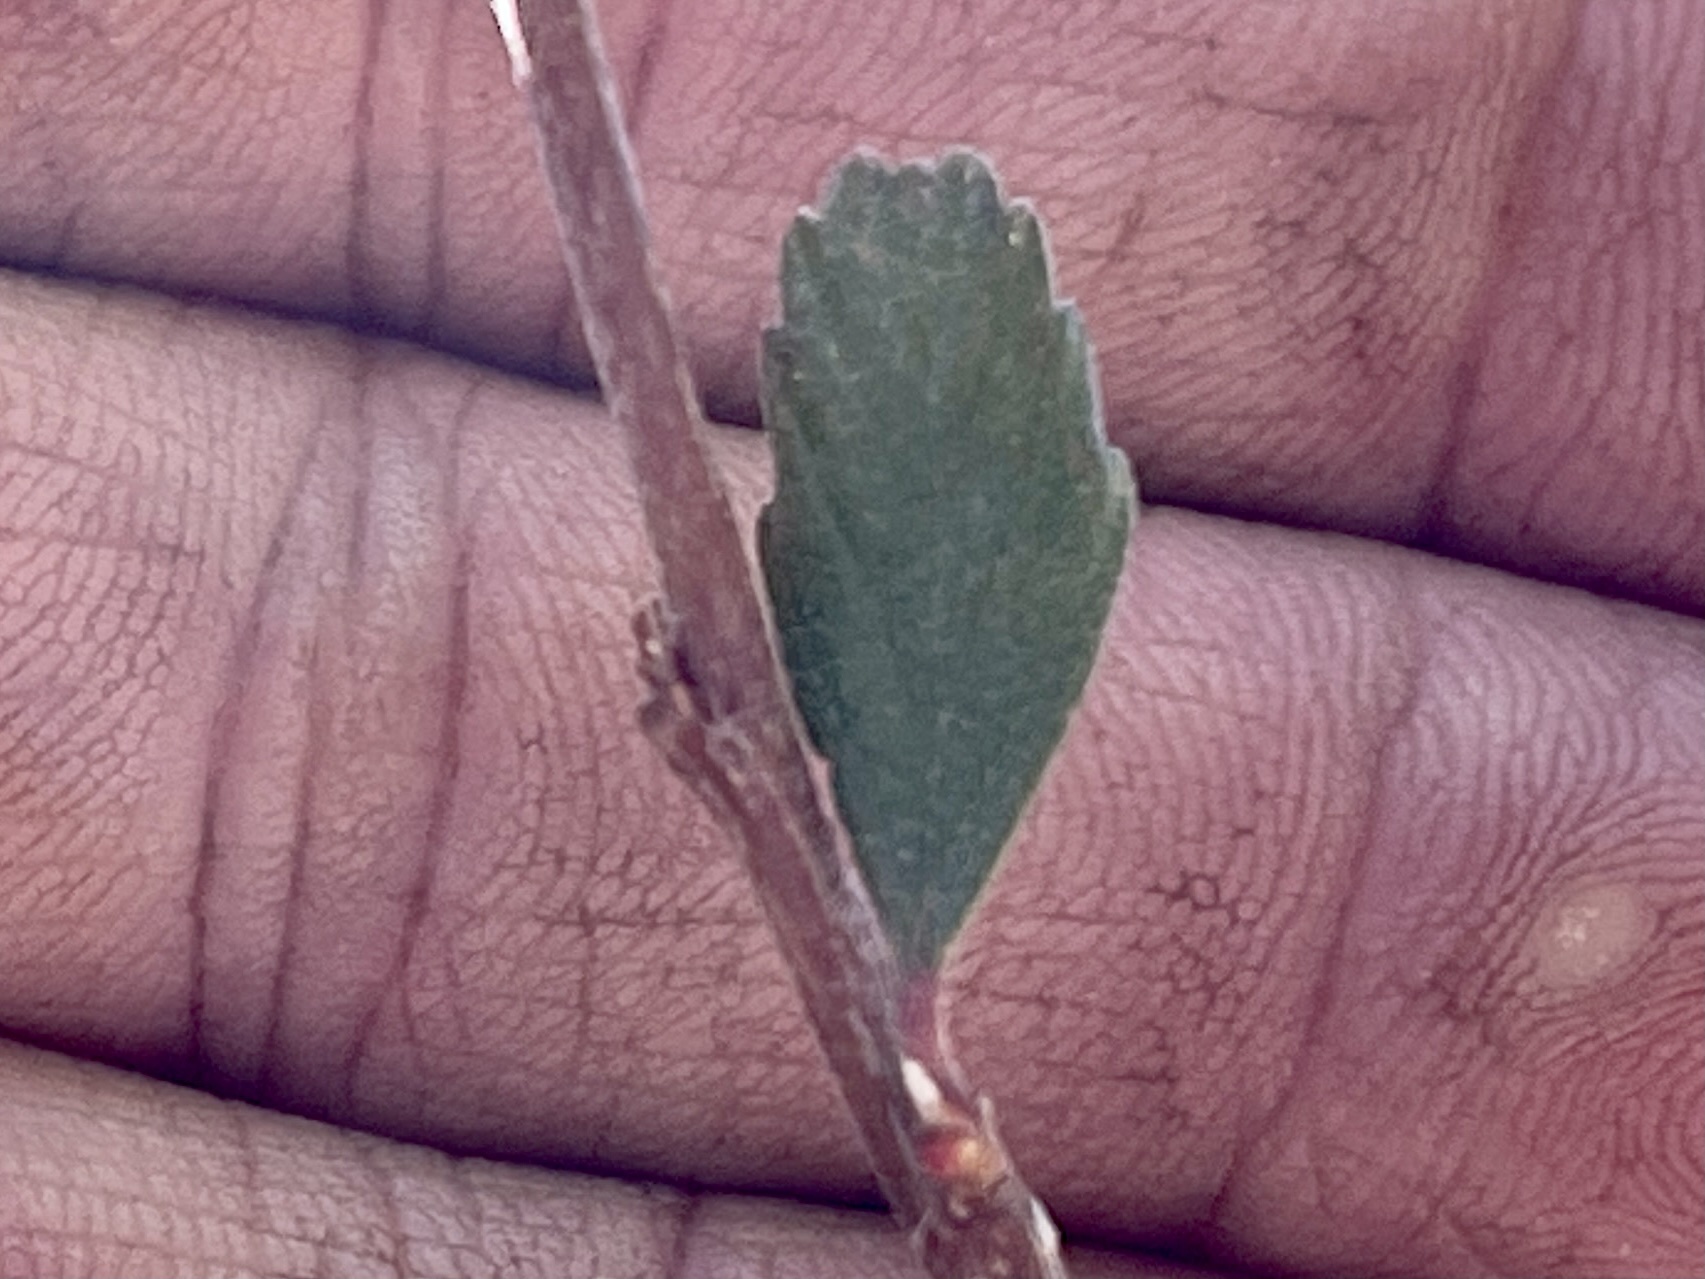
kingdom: Plantae
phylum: Tracheophyta
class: Magnoliopsida
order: Rosales
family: Rosaceae
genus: Cercocarpus
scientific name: Cercocarpus montanus
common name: Alder-leaf cercocarpus
